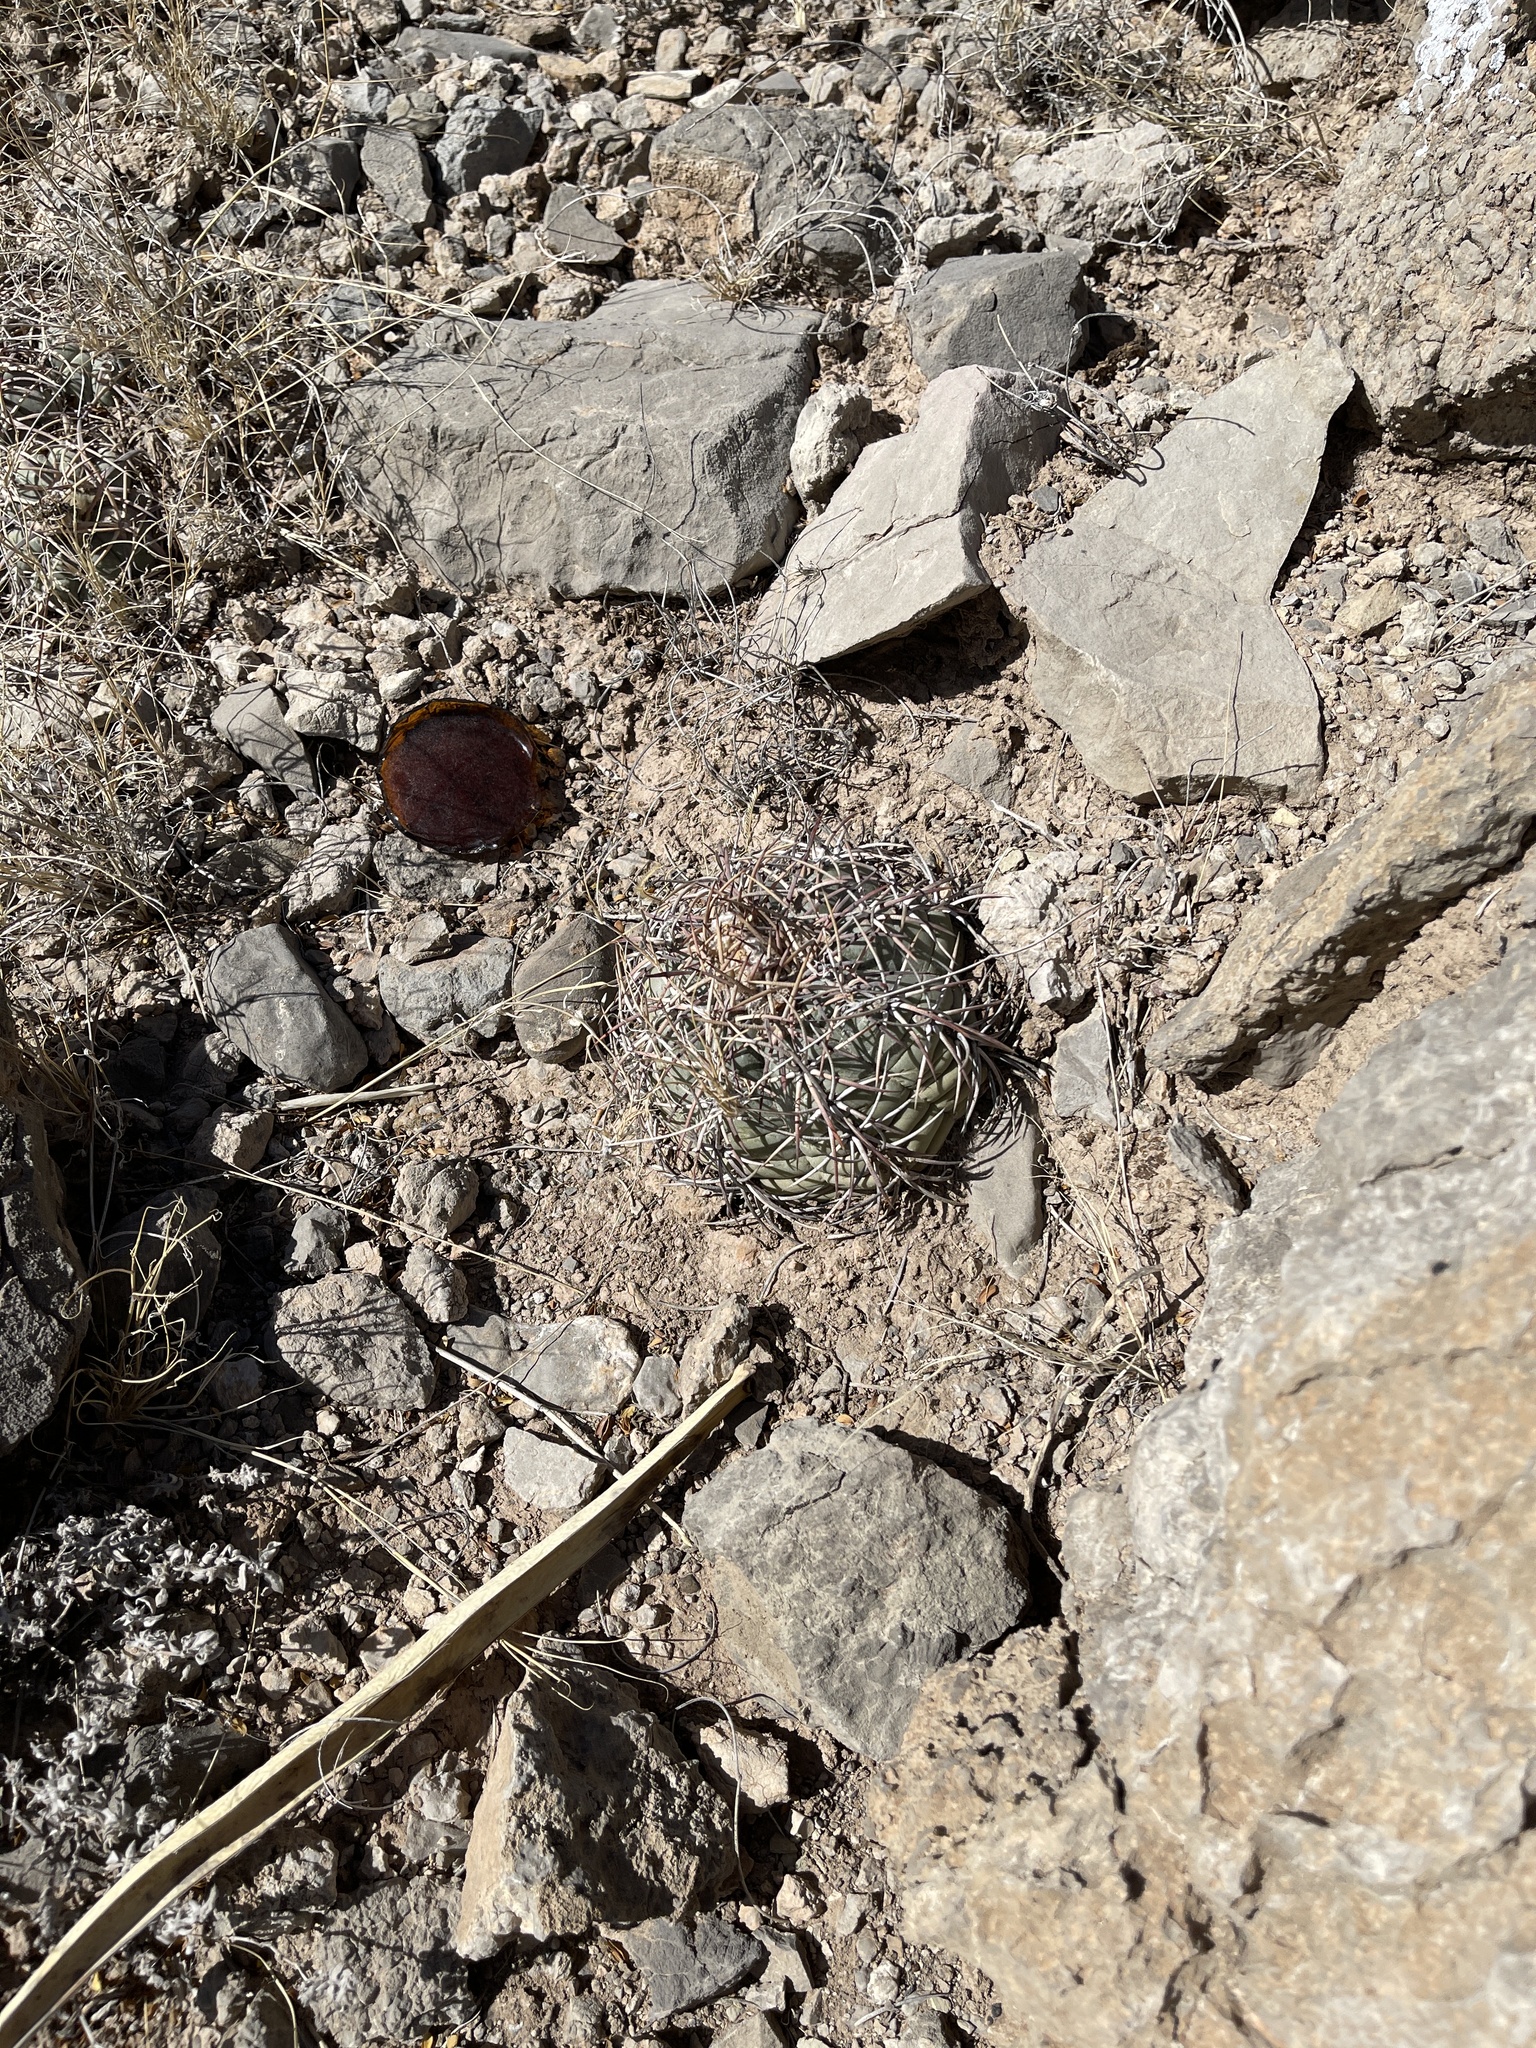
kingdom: Plantae
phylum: Tracheophyta
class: Magnoliopsida
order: Caryophyllales
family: Cactaceae
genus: Echinocactus
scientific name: Echinocactus horizonthalonius
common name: Devilshead
